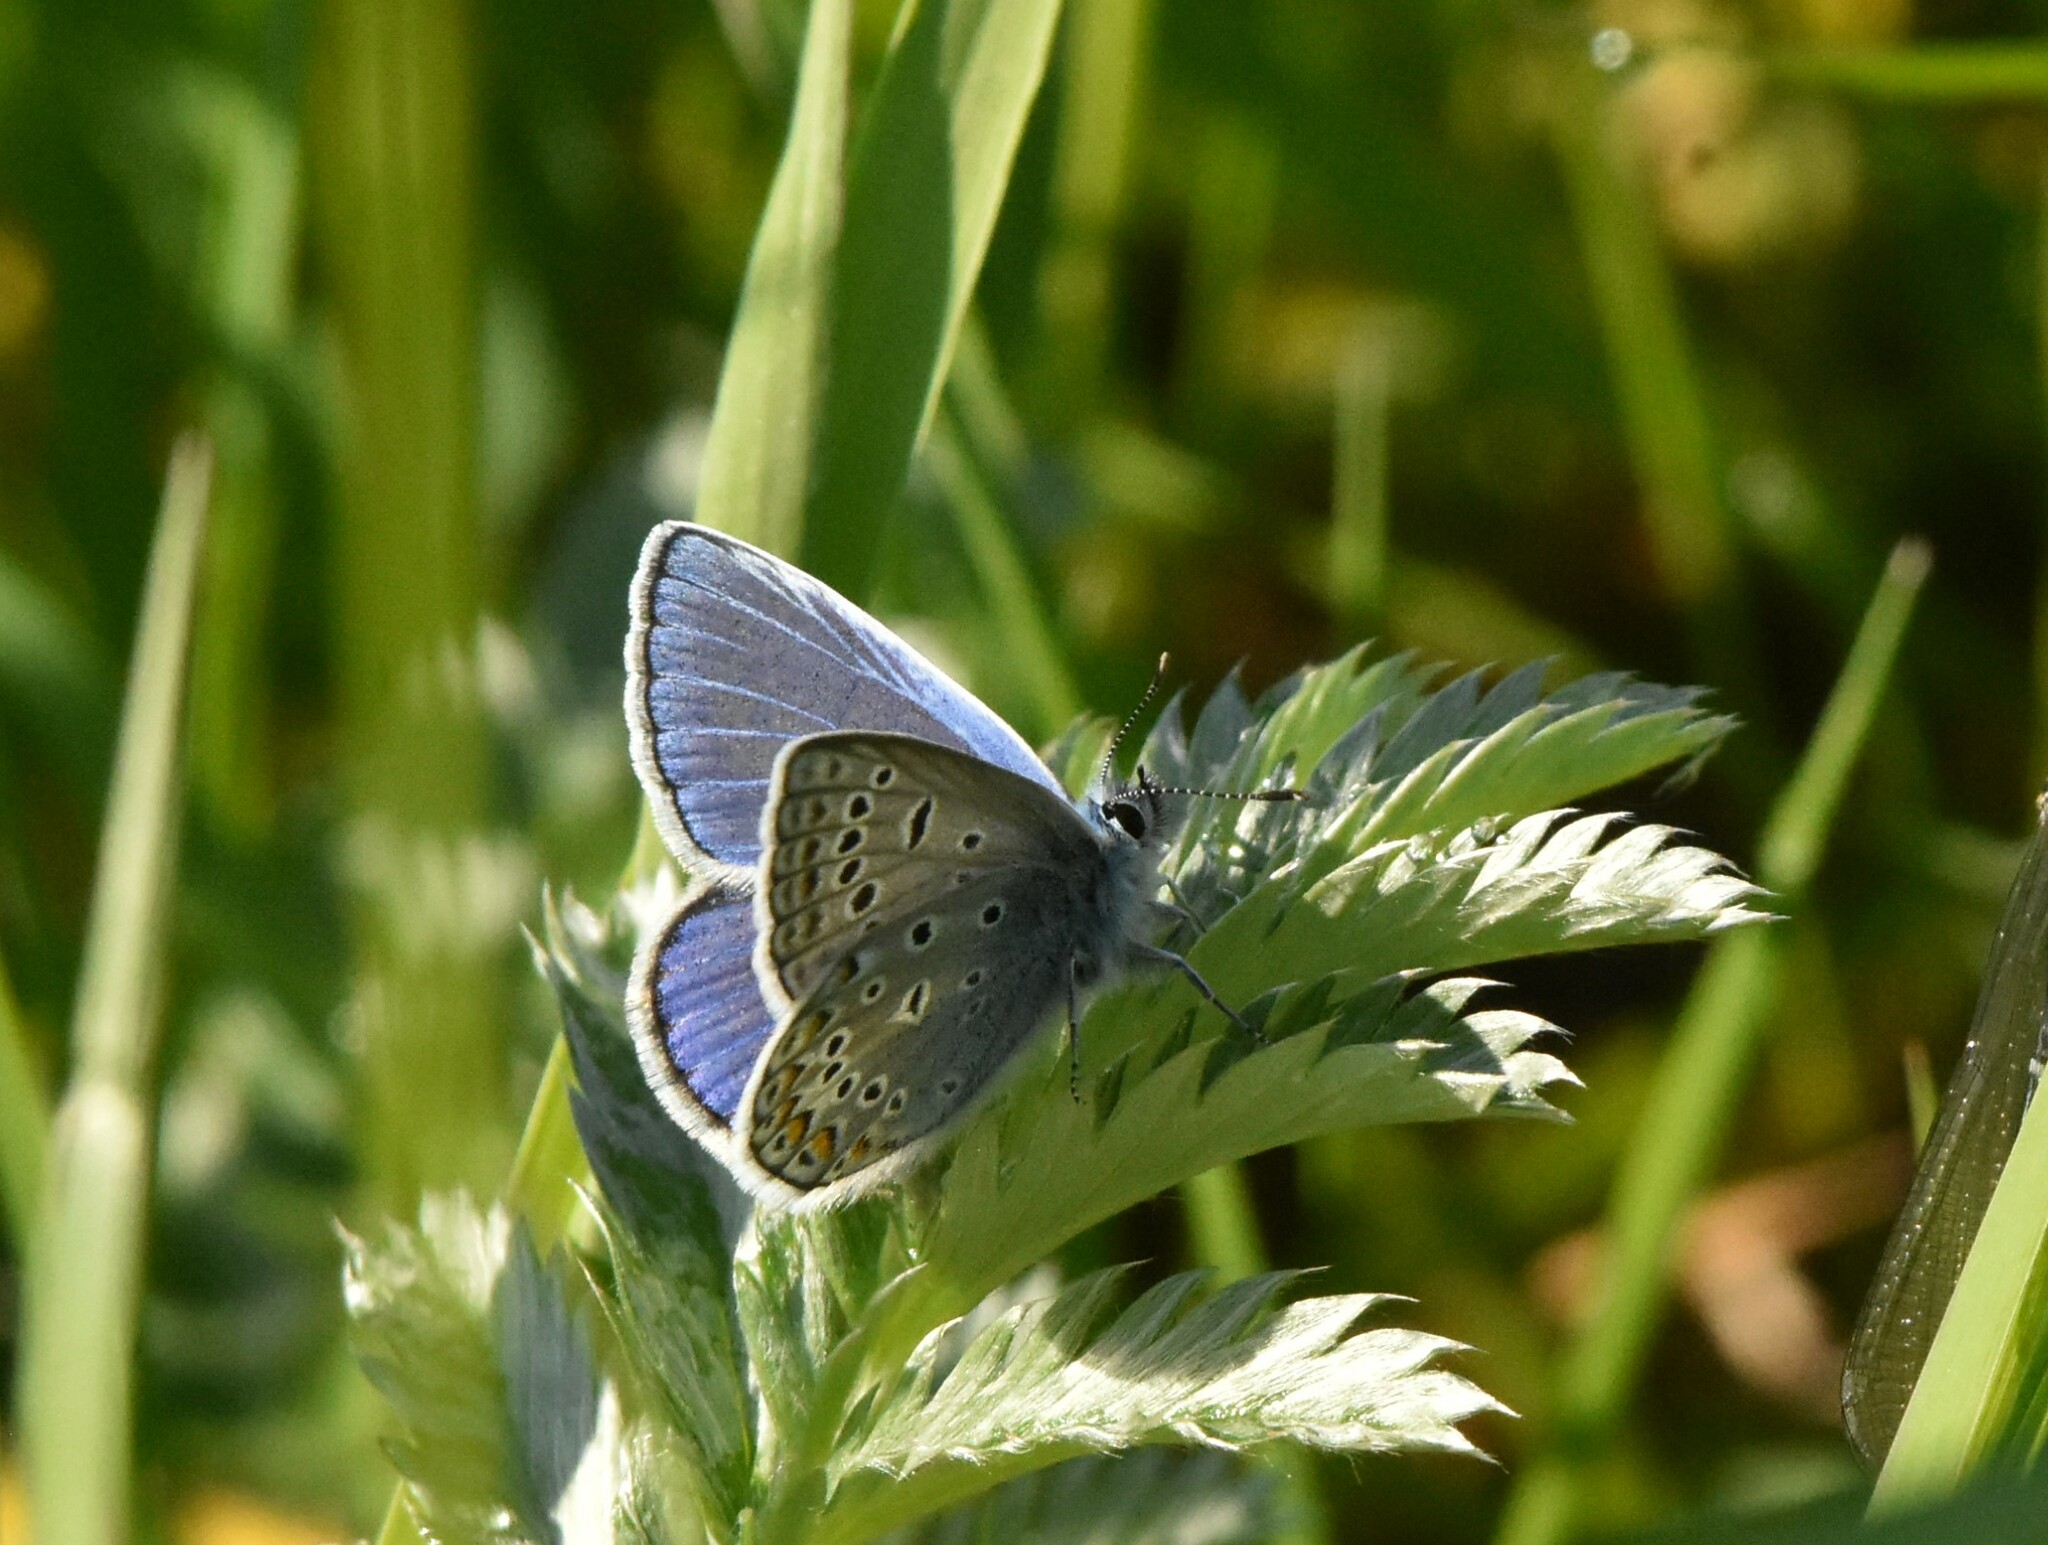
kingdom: Animalia
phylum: Arthropoda
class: Insecta
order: Lepidoptera
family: Lycaenidae
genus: Polyommatus
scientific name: Polyommatus icarus
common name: Common blue
